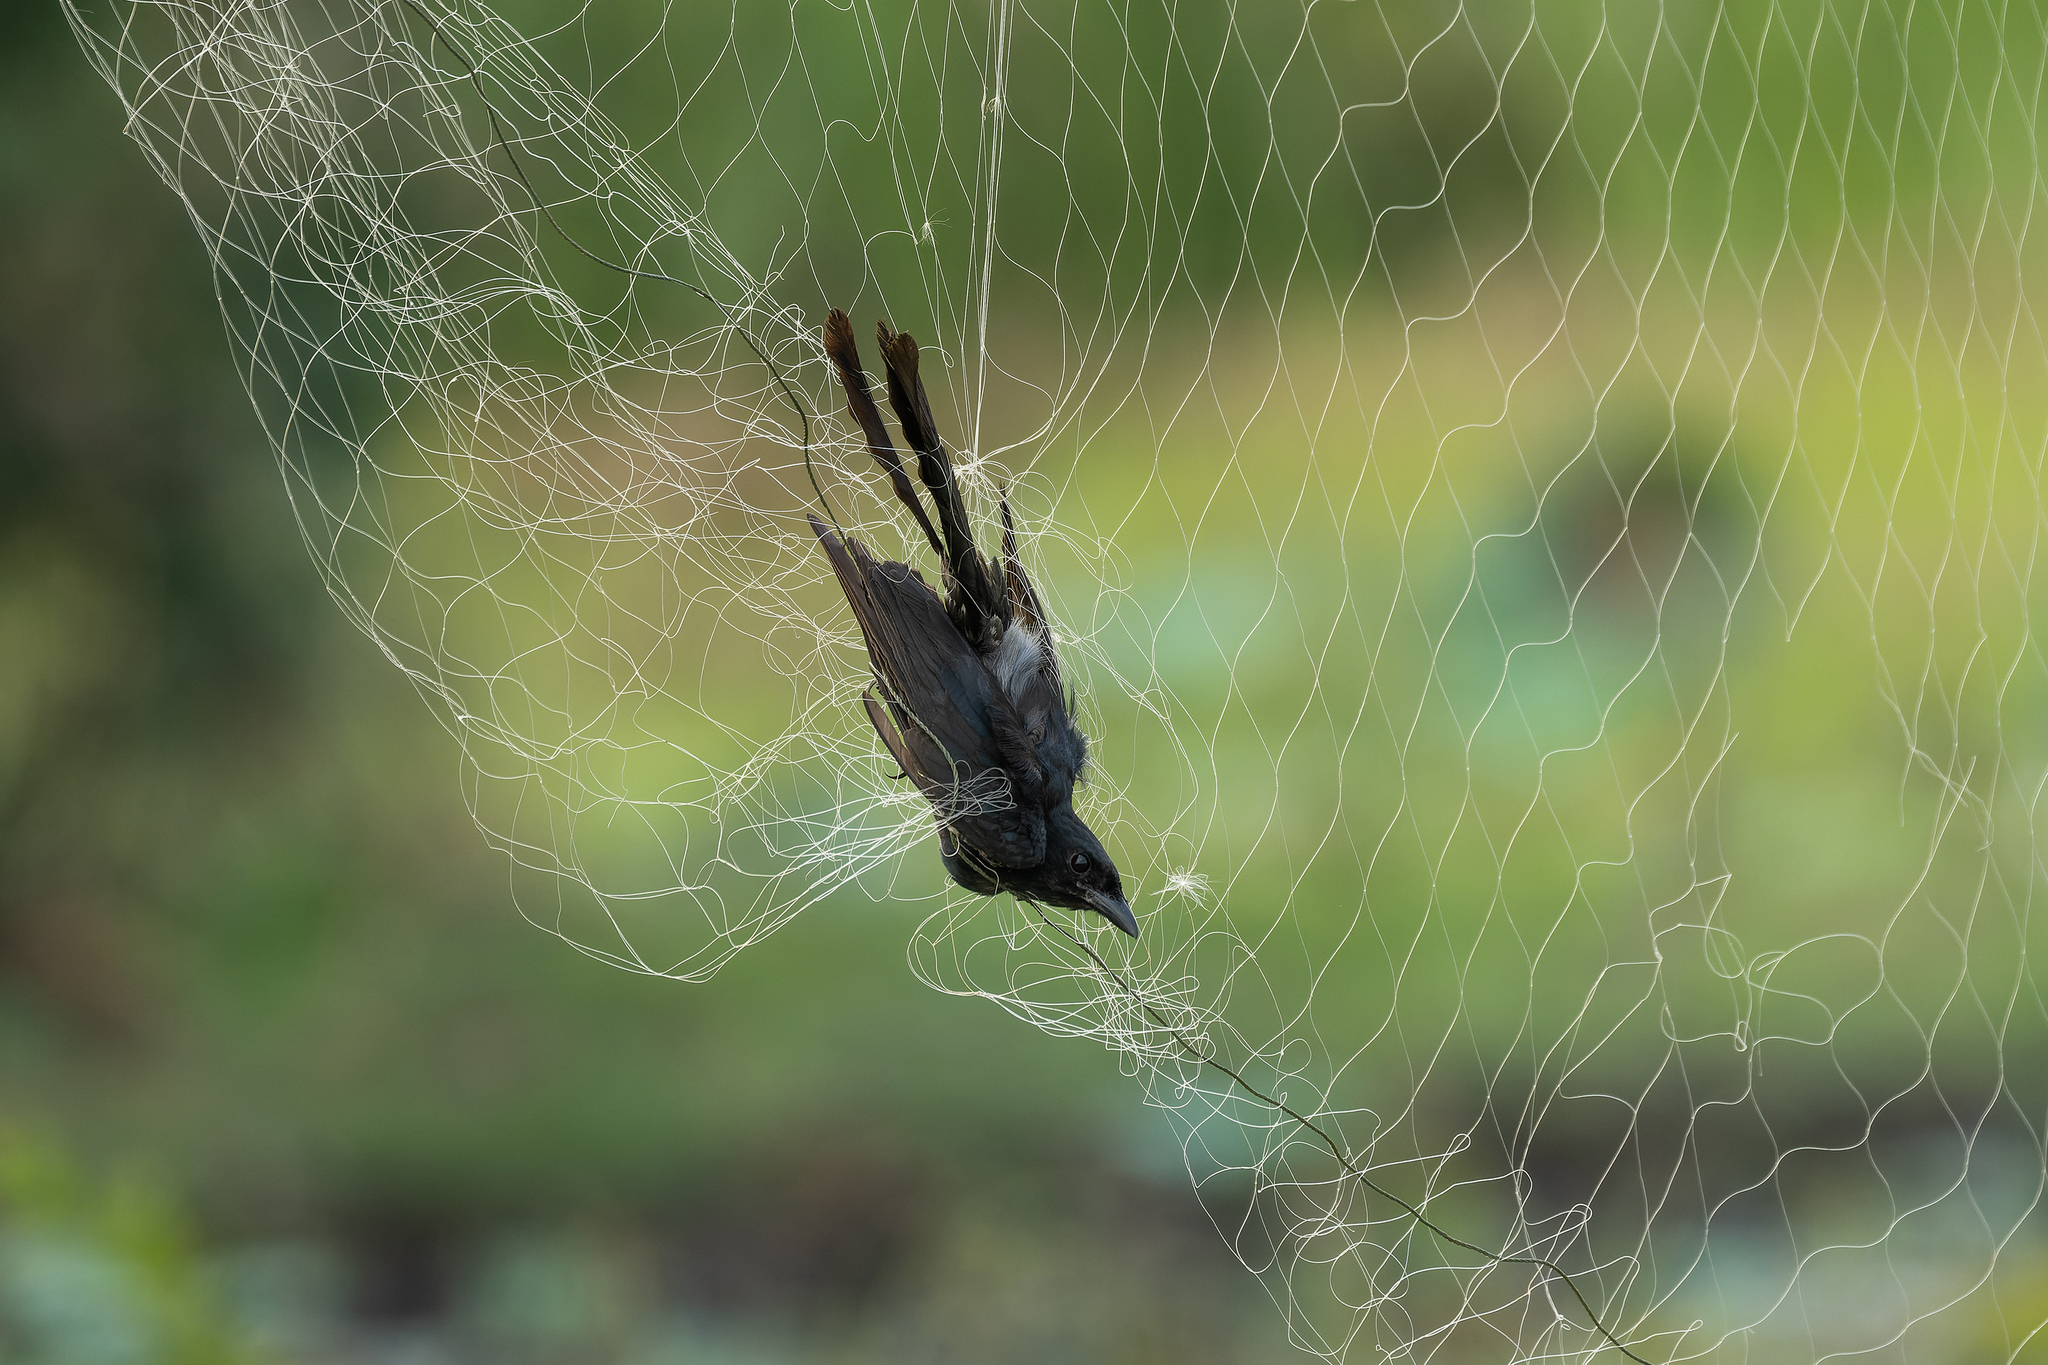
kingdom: Animalia
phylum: Chordata
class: Aves
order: Passeriformes
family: Dicruridae
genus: Dicrurus
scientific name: Dicrurus macrocercus
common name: Black drongo
